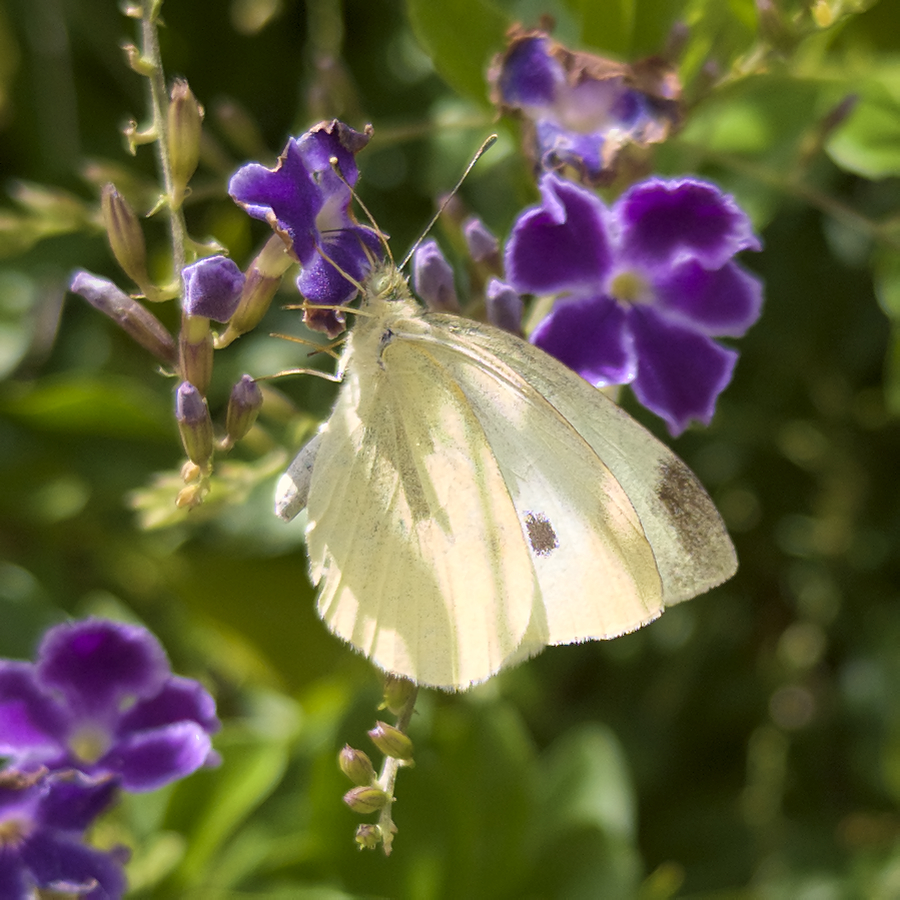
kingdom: Animalia
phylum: Arthropoda
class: Insecta
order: Lepidoptera
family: Pieridae
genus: Pieris
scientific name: Pieris rapae
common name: Small white
